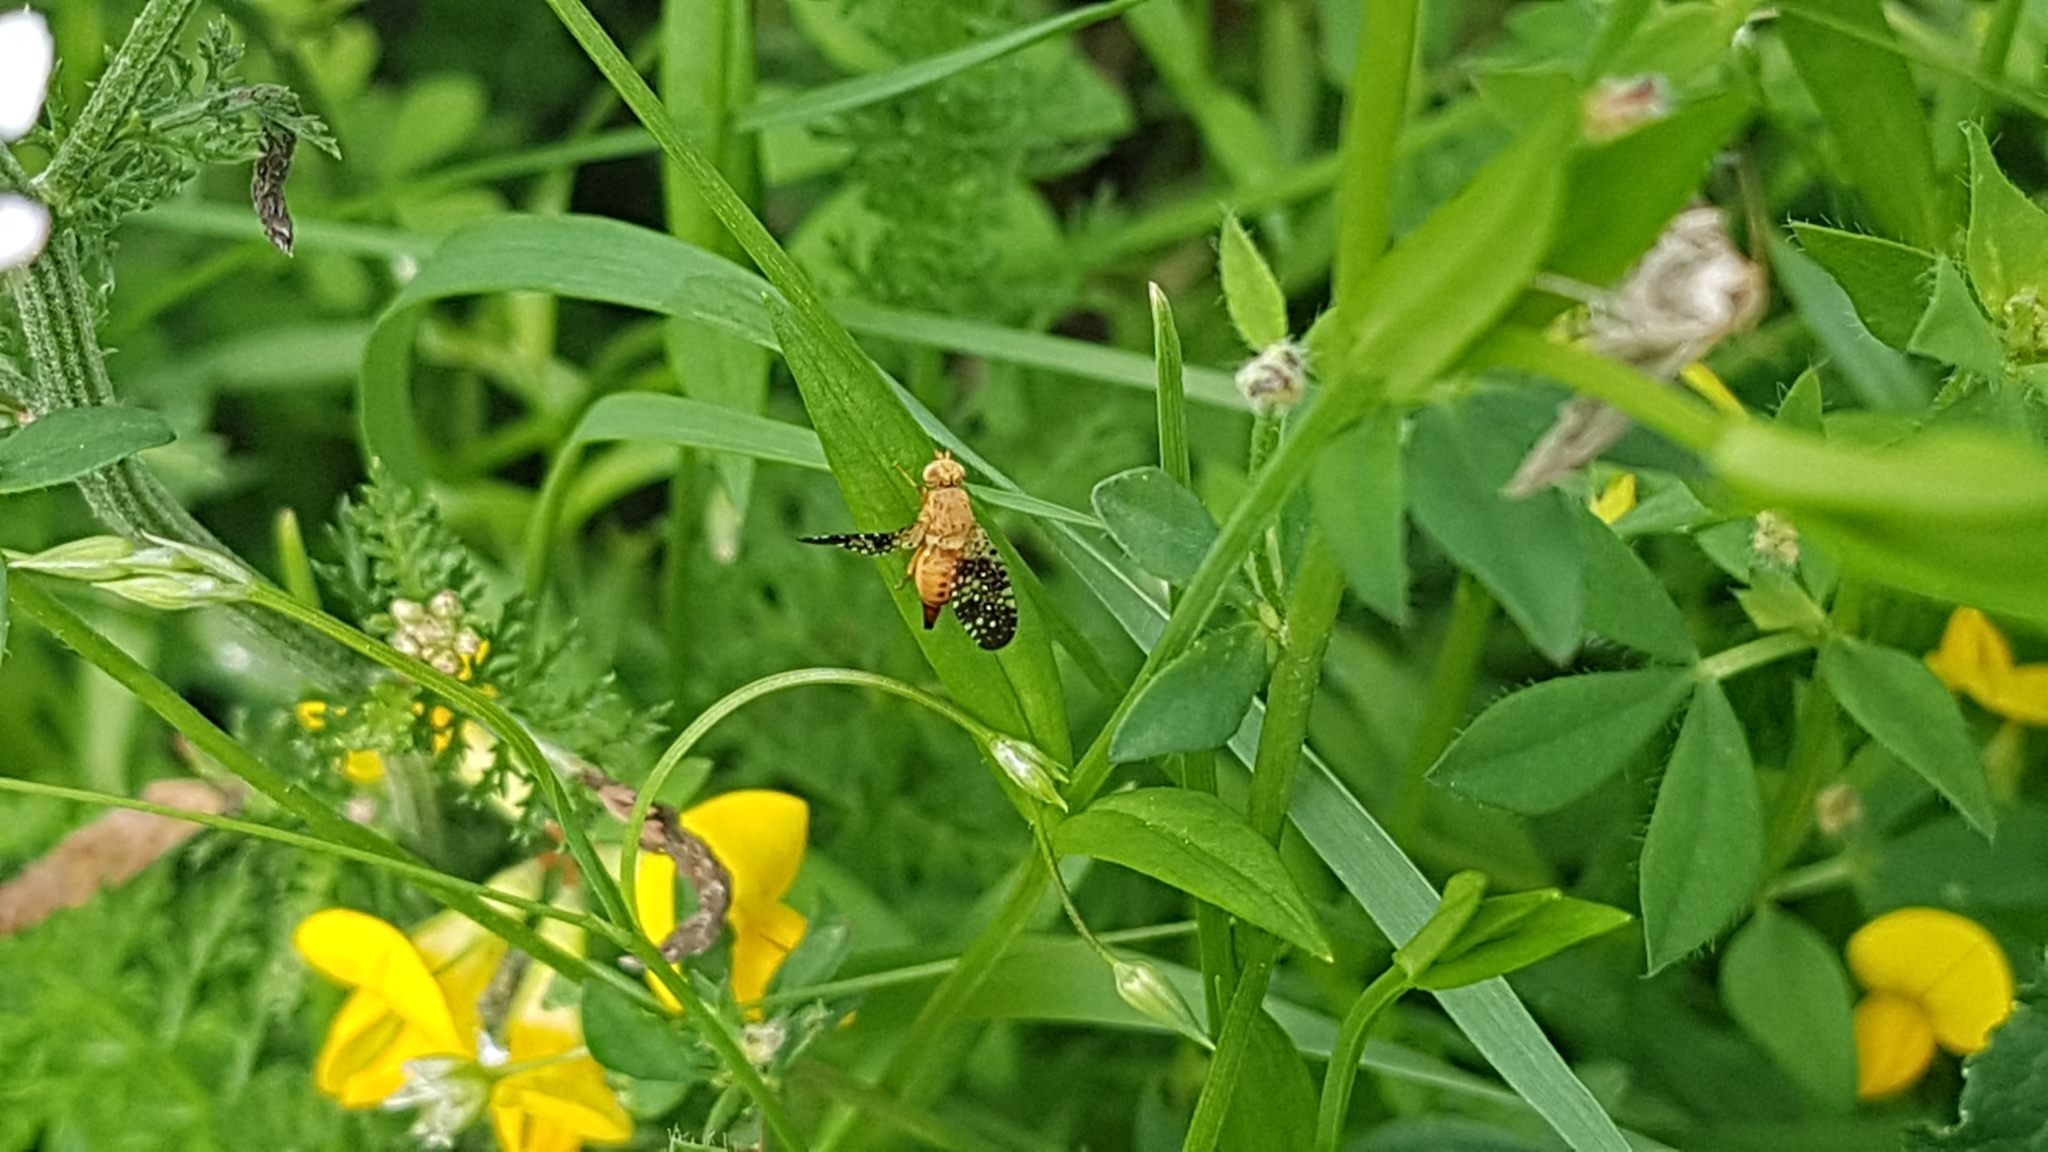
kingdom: Animalia
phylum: Arthropoda
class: Insecta
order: Diptera
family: Tephritidae
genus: Acinia
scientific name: Acinia corniculata
